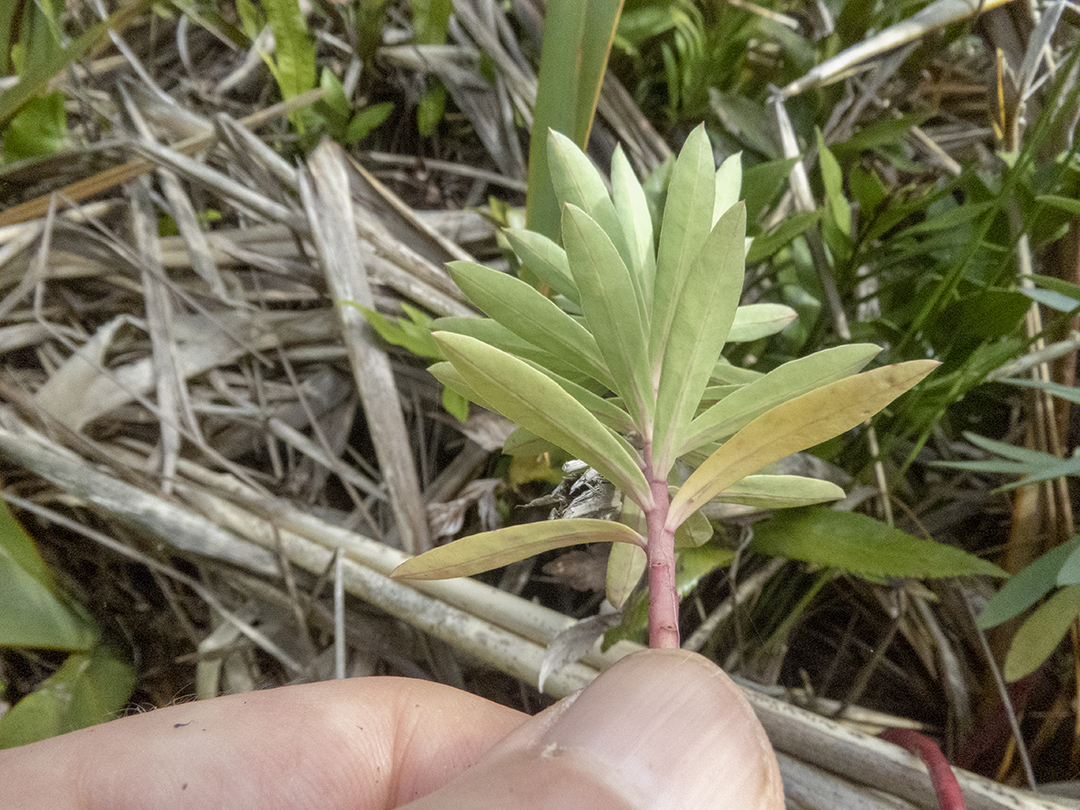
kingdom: Plantae
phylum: Tracheophyta
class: Magnoliopsida
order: Malpighiales
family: Euphorbiaceae
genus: Euphorbia
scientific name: Euphorbia glauca
